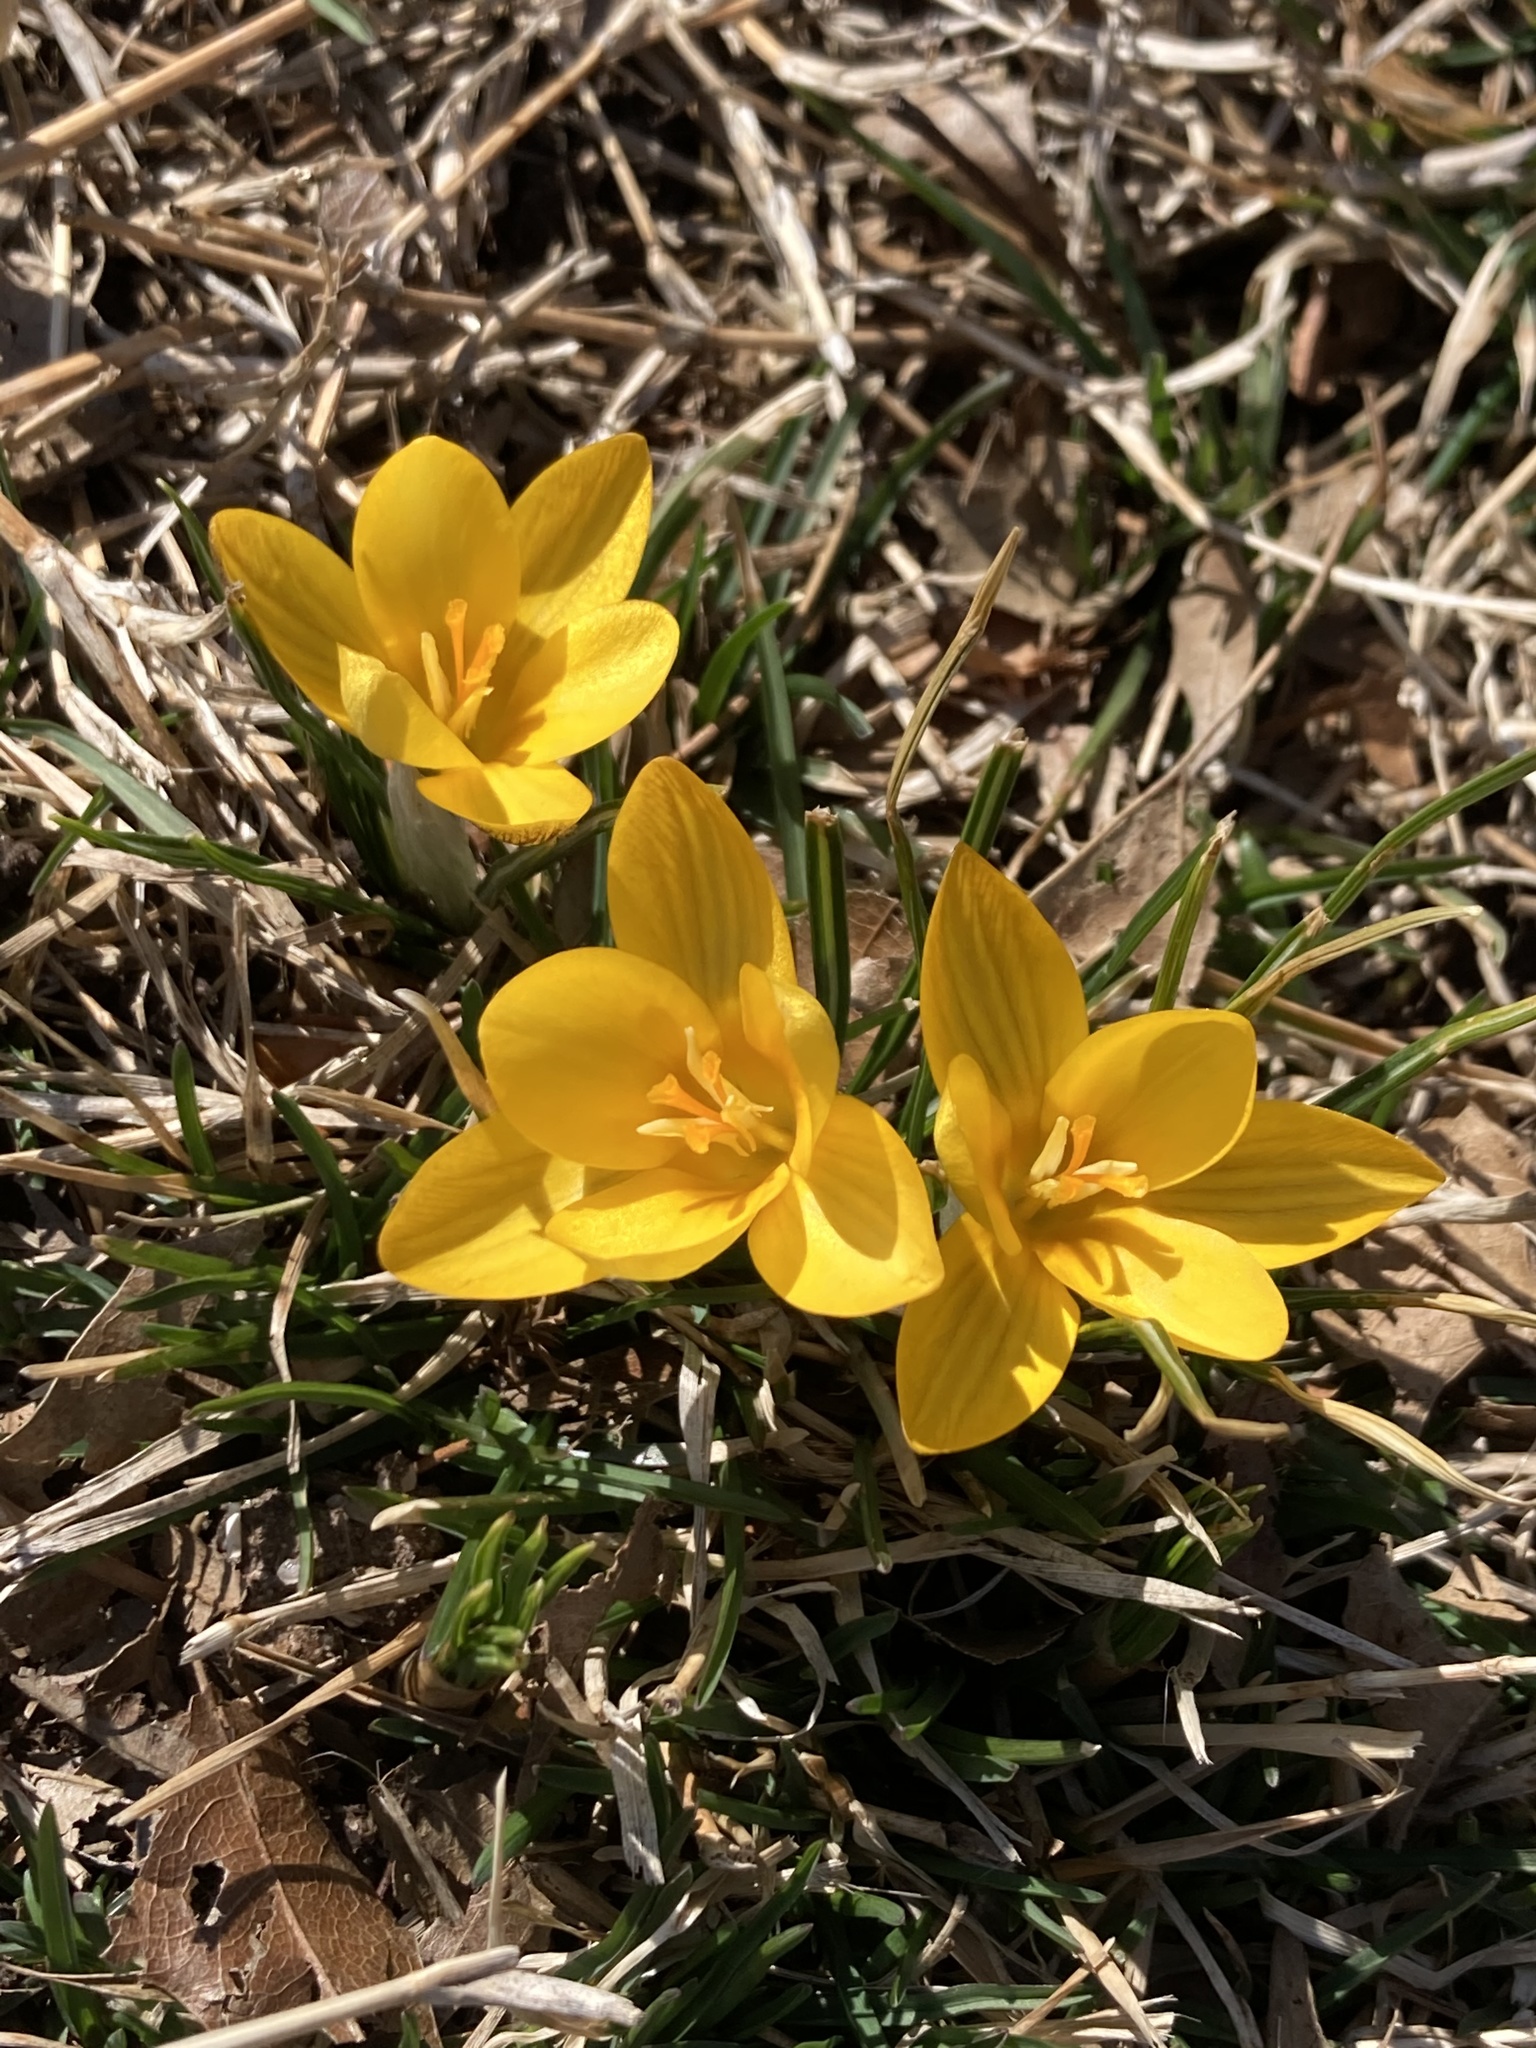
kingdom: Plantae
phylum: Tracheophyta
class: Liliopsida
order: Asparagales
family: Iridaceae
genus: Crocus
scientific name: Crocus chrysanthus
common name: Golden crocus
